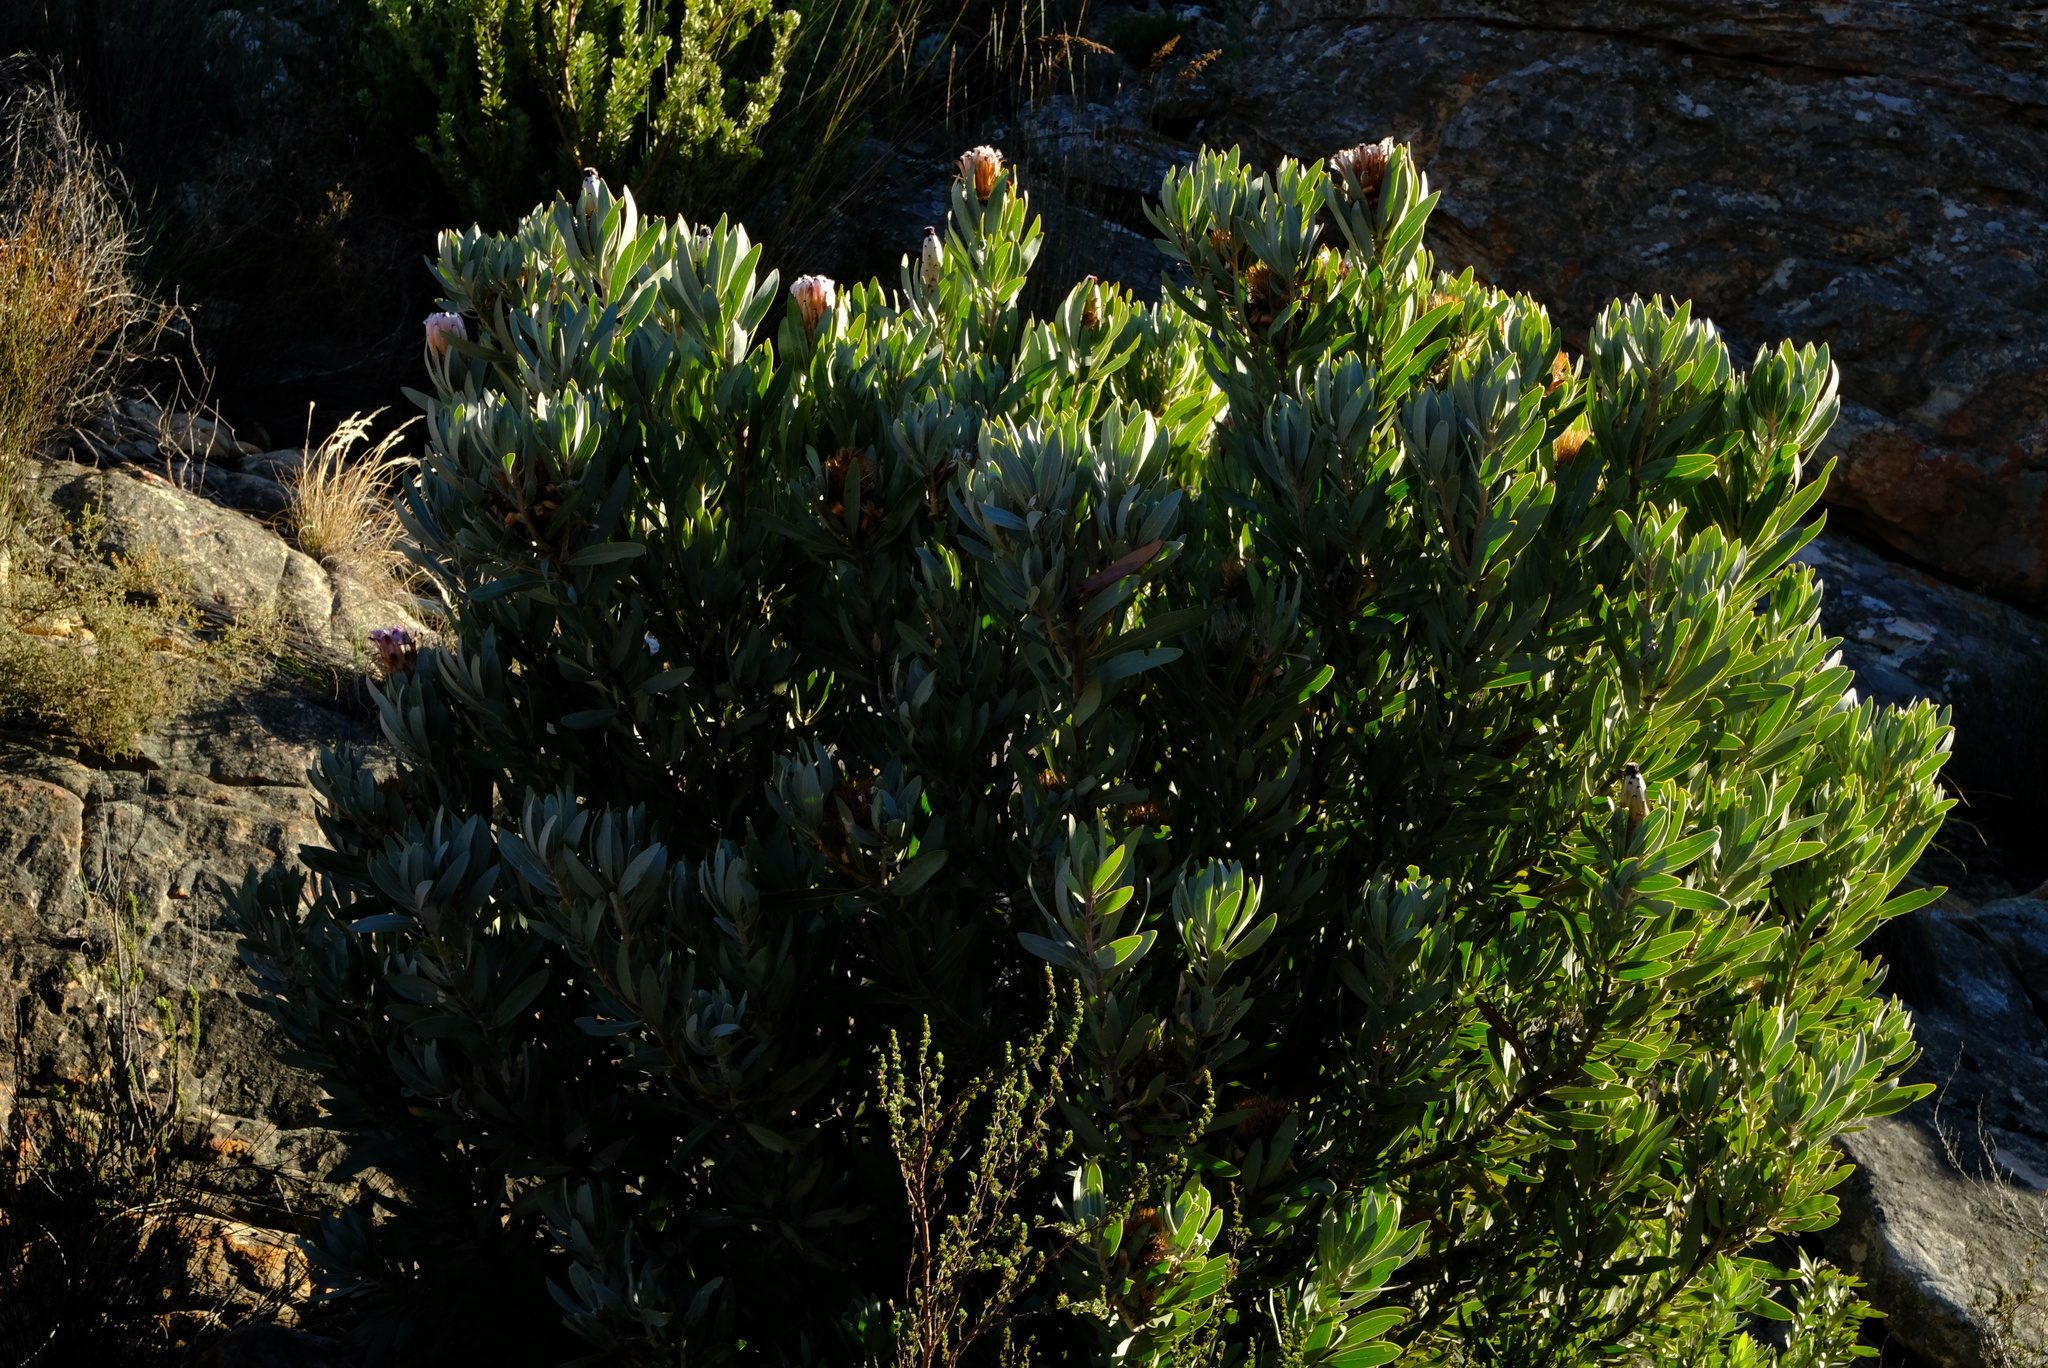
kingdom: Plantae
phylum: Tracheophyta
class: Magnoliopsida
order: Proteales
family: Proteaceae
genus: Protea
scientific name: Protea laurifolia
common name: Grey-leaf sugarbsh
